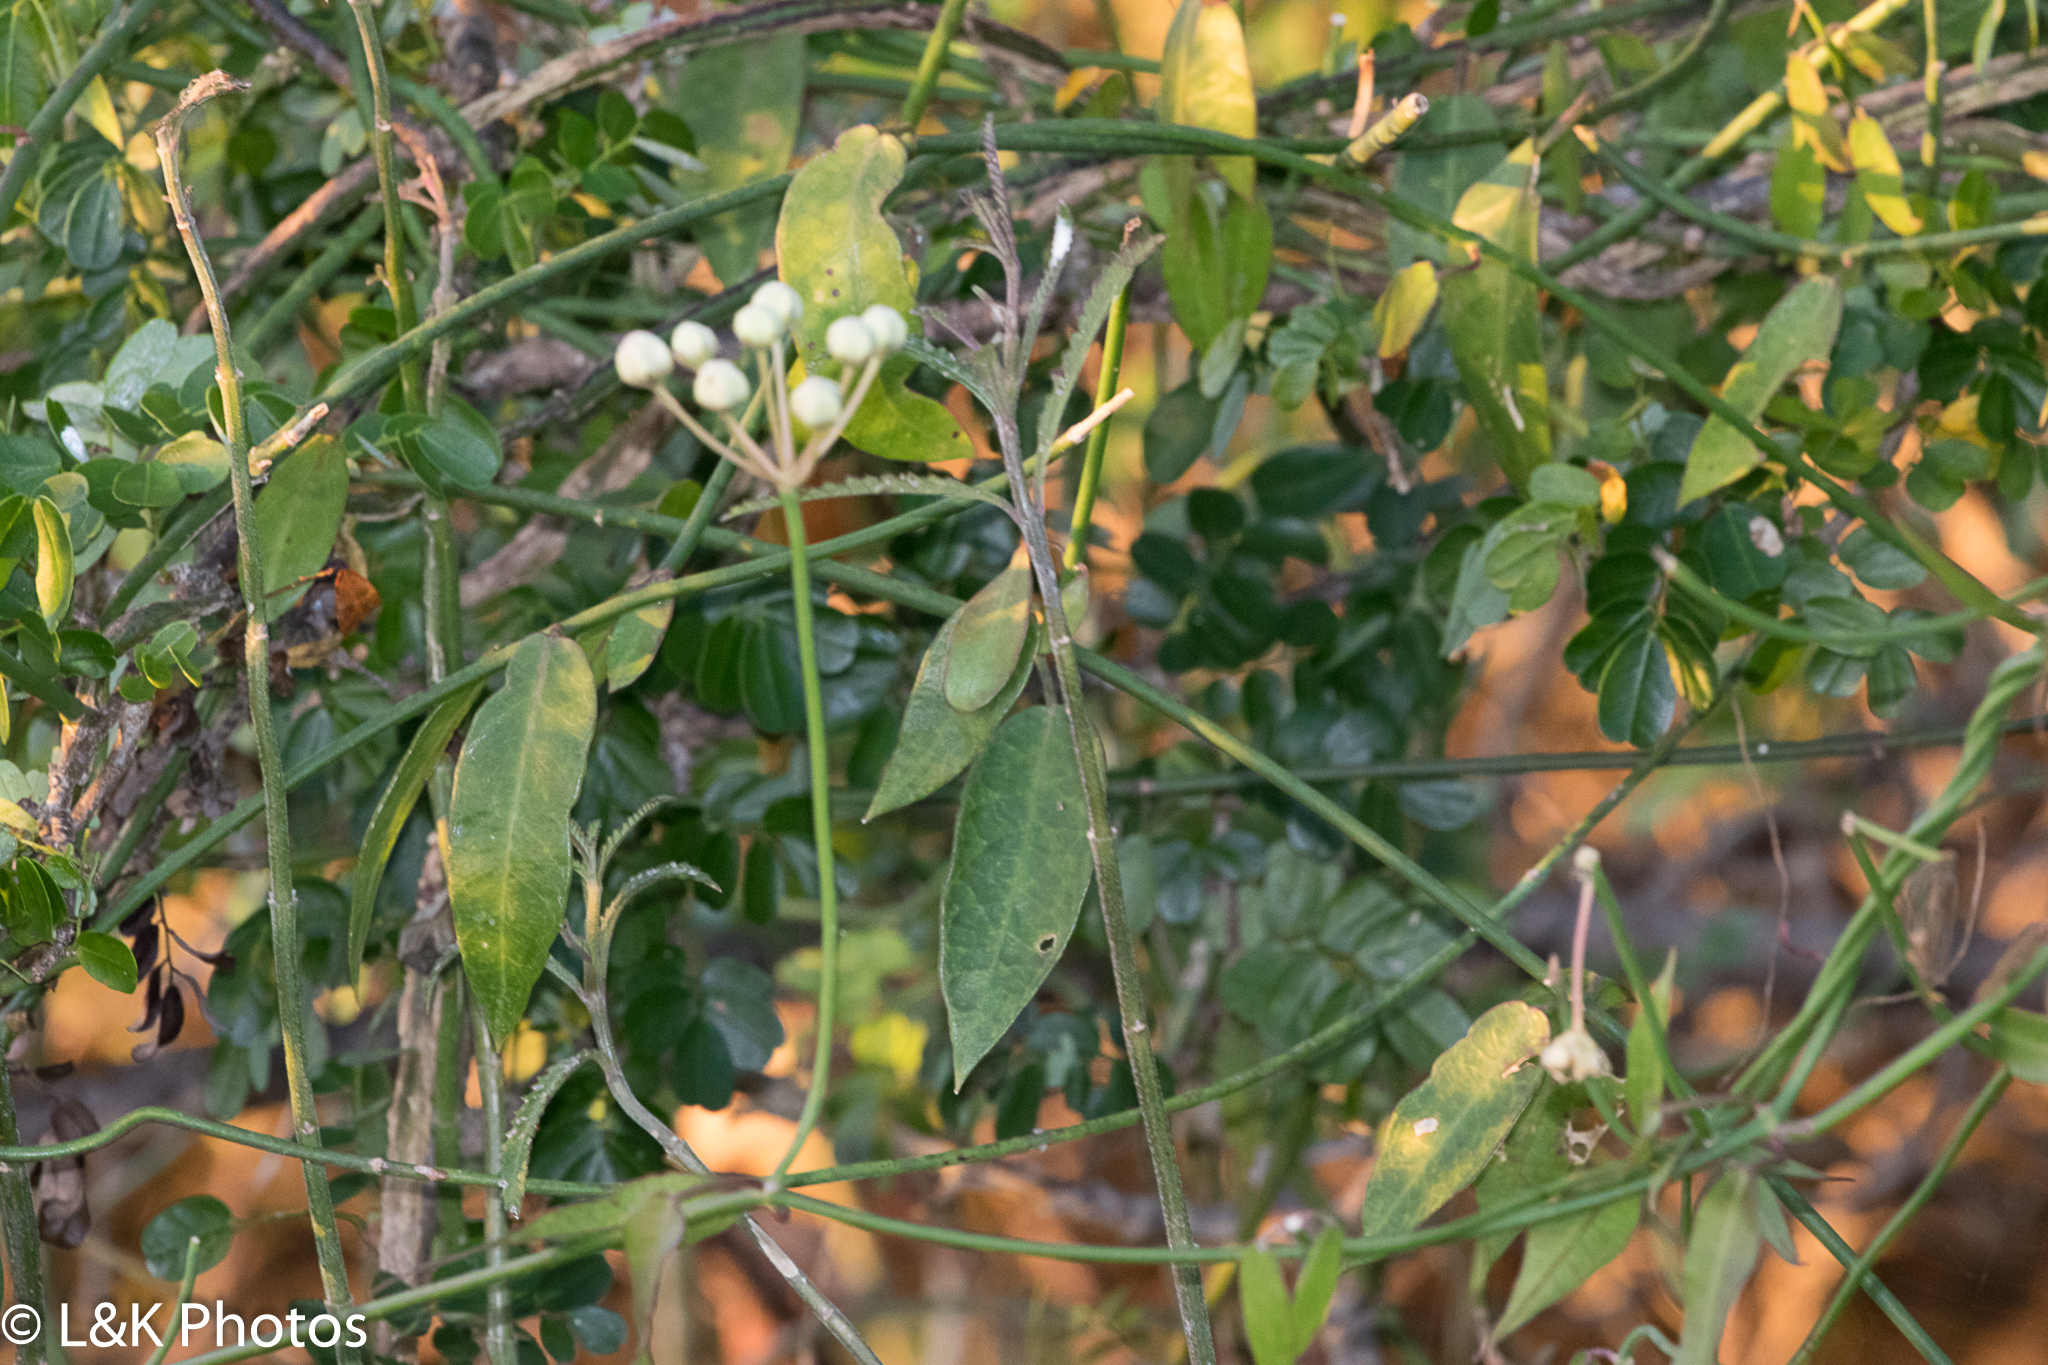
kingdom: Plantae
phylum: Tracheophyta
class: Magnoliopsida
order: Gentianales
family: Apocynaceae
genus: Funastrum
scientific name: Funastrum clausum
